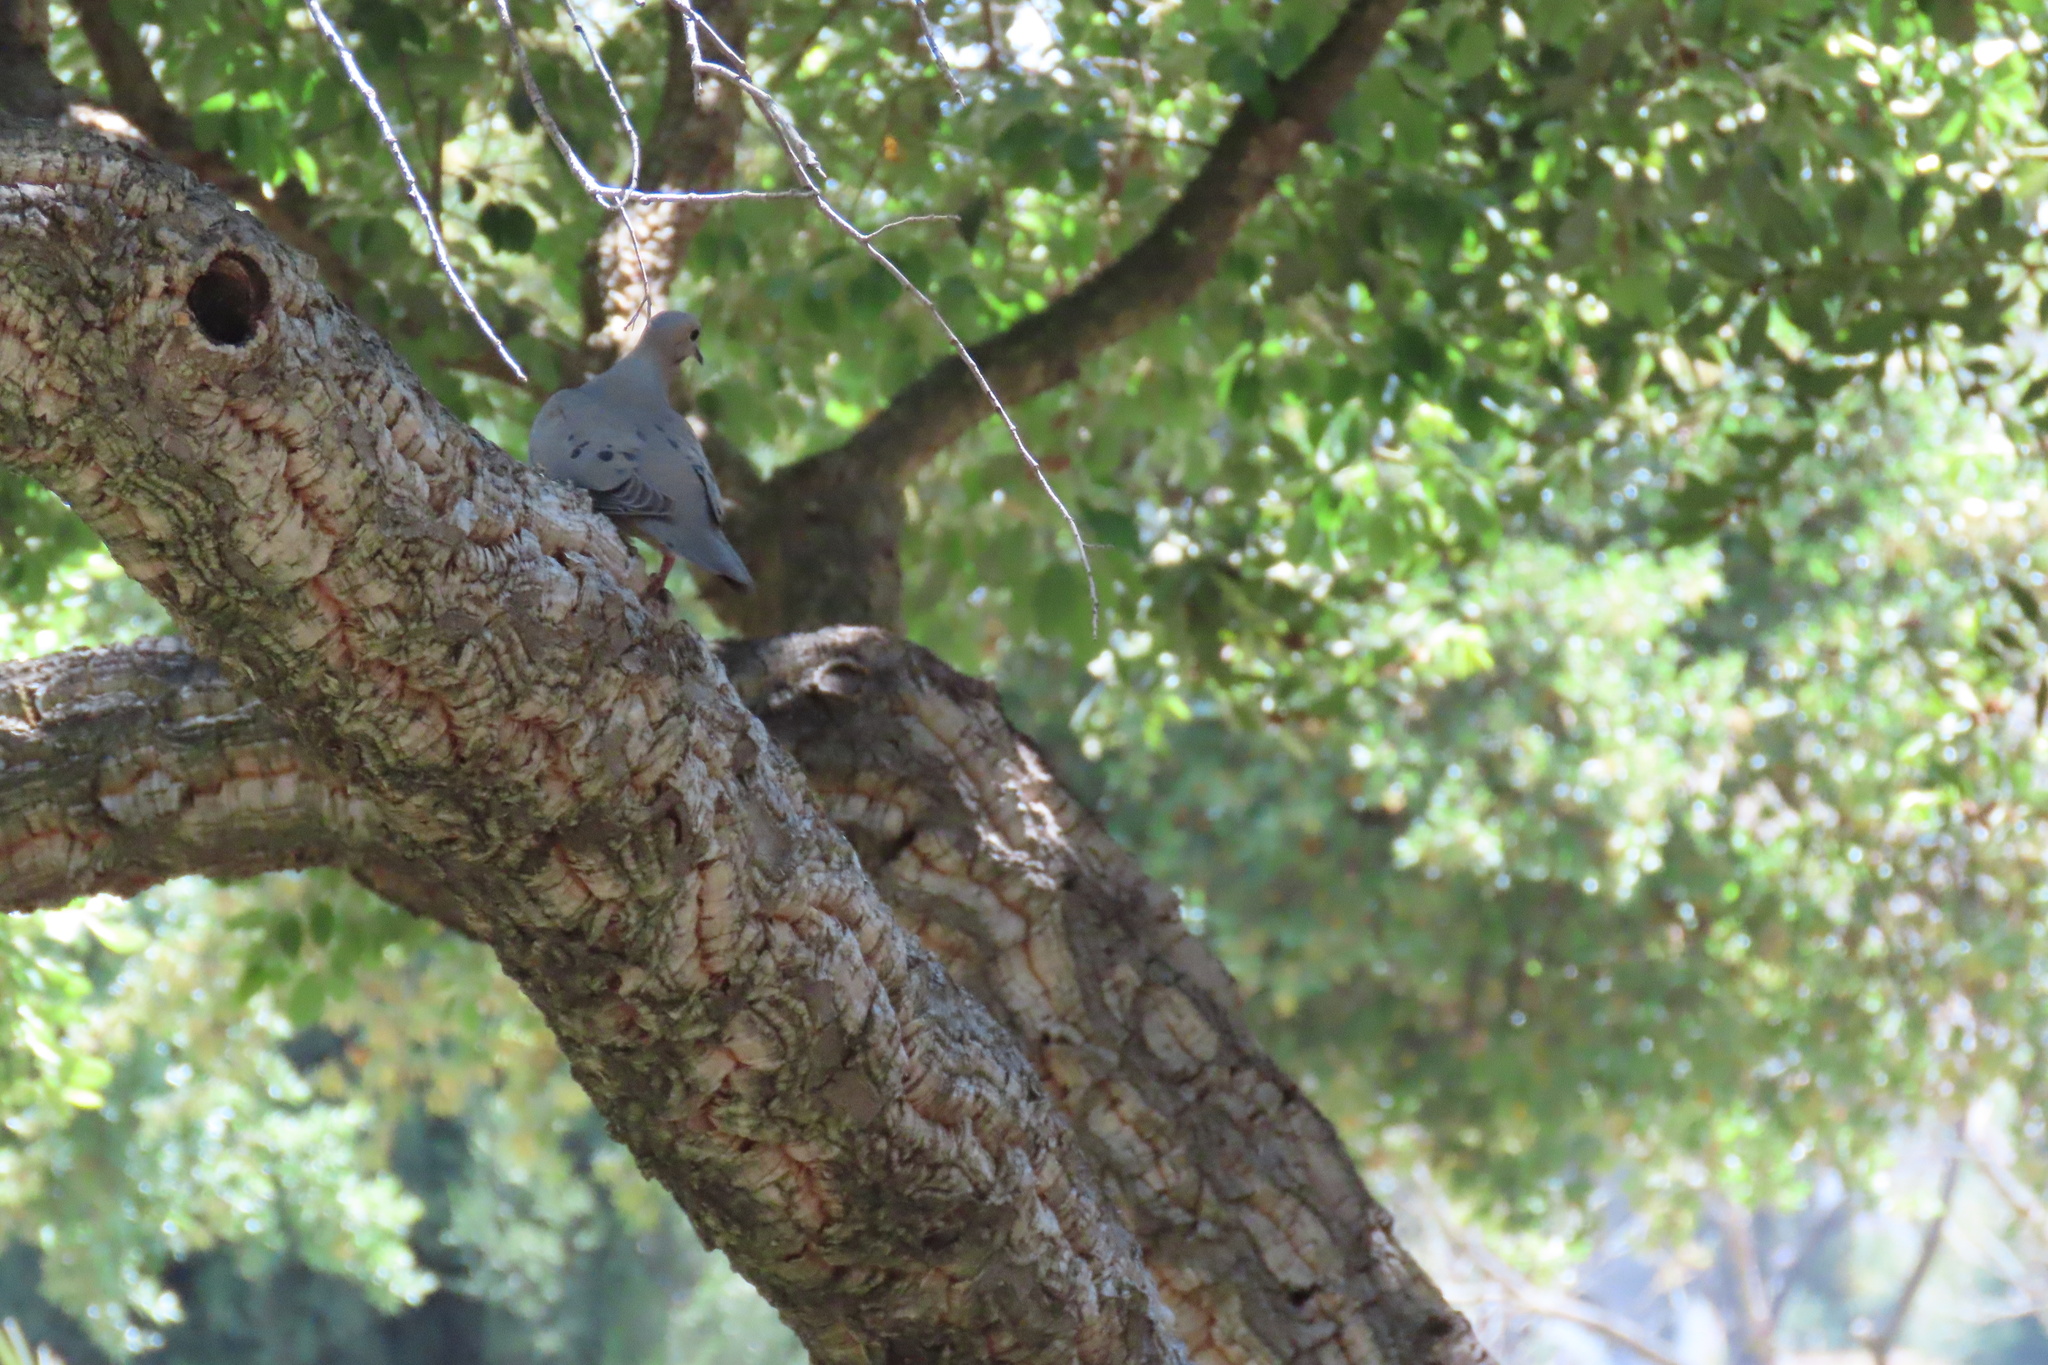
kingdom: Animalia
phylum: Chordata
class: Aves
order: Columbiformes
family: Columbidae
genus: Zenaida
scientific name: Zenaida macroura
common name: Mourning dove
